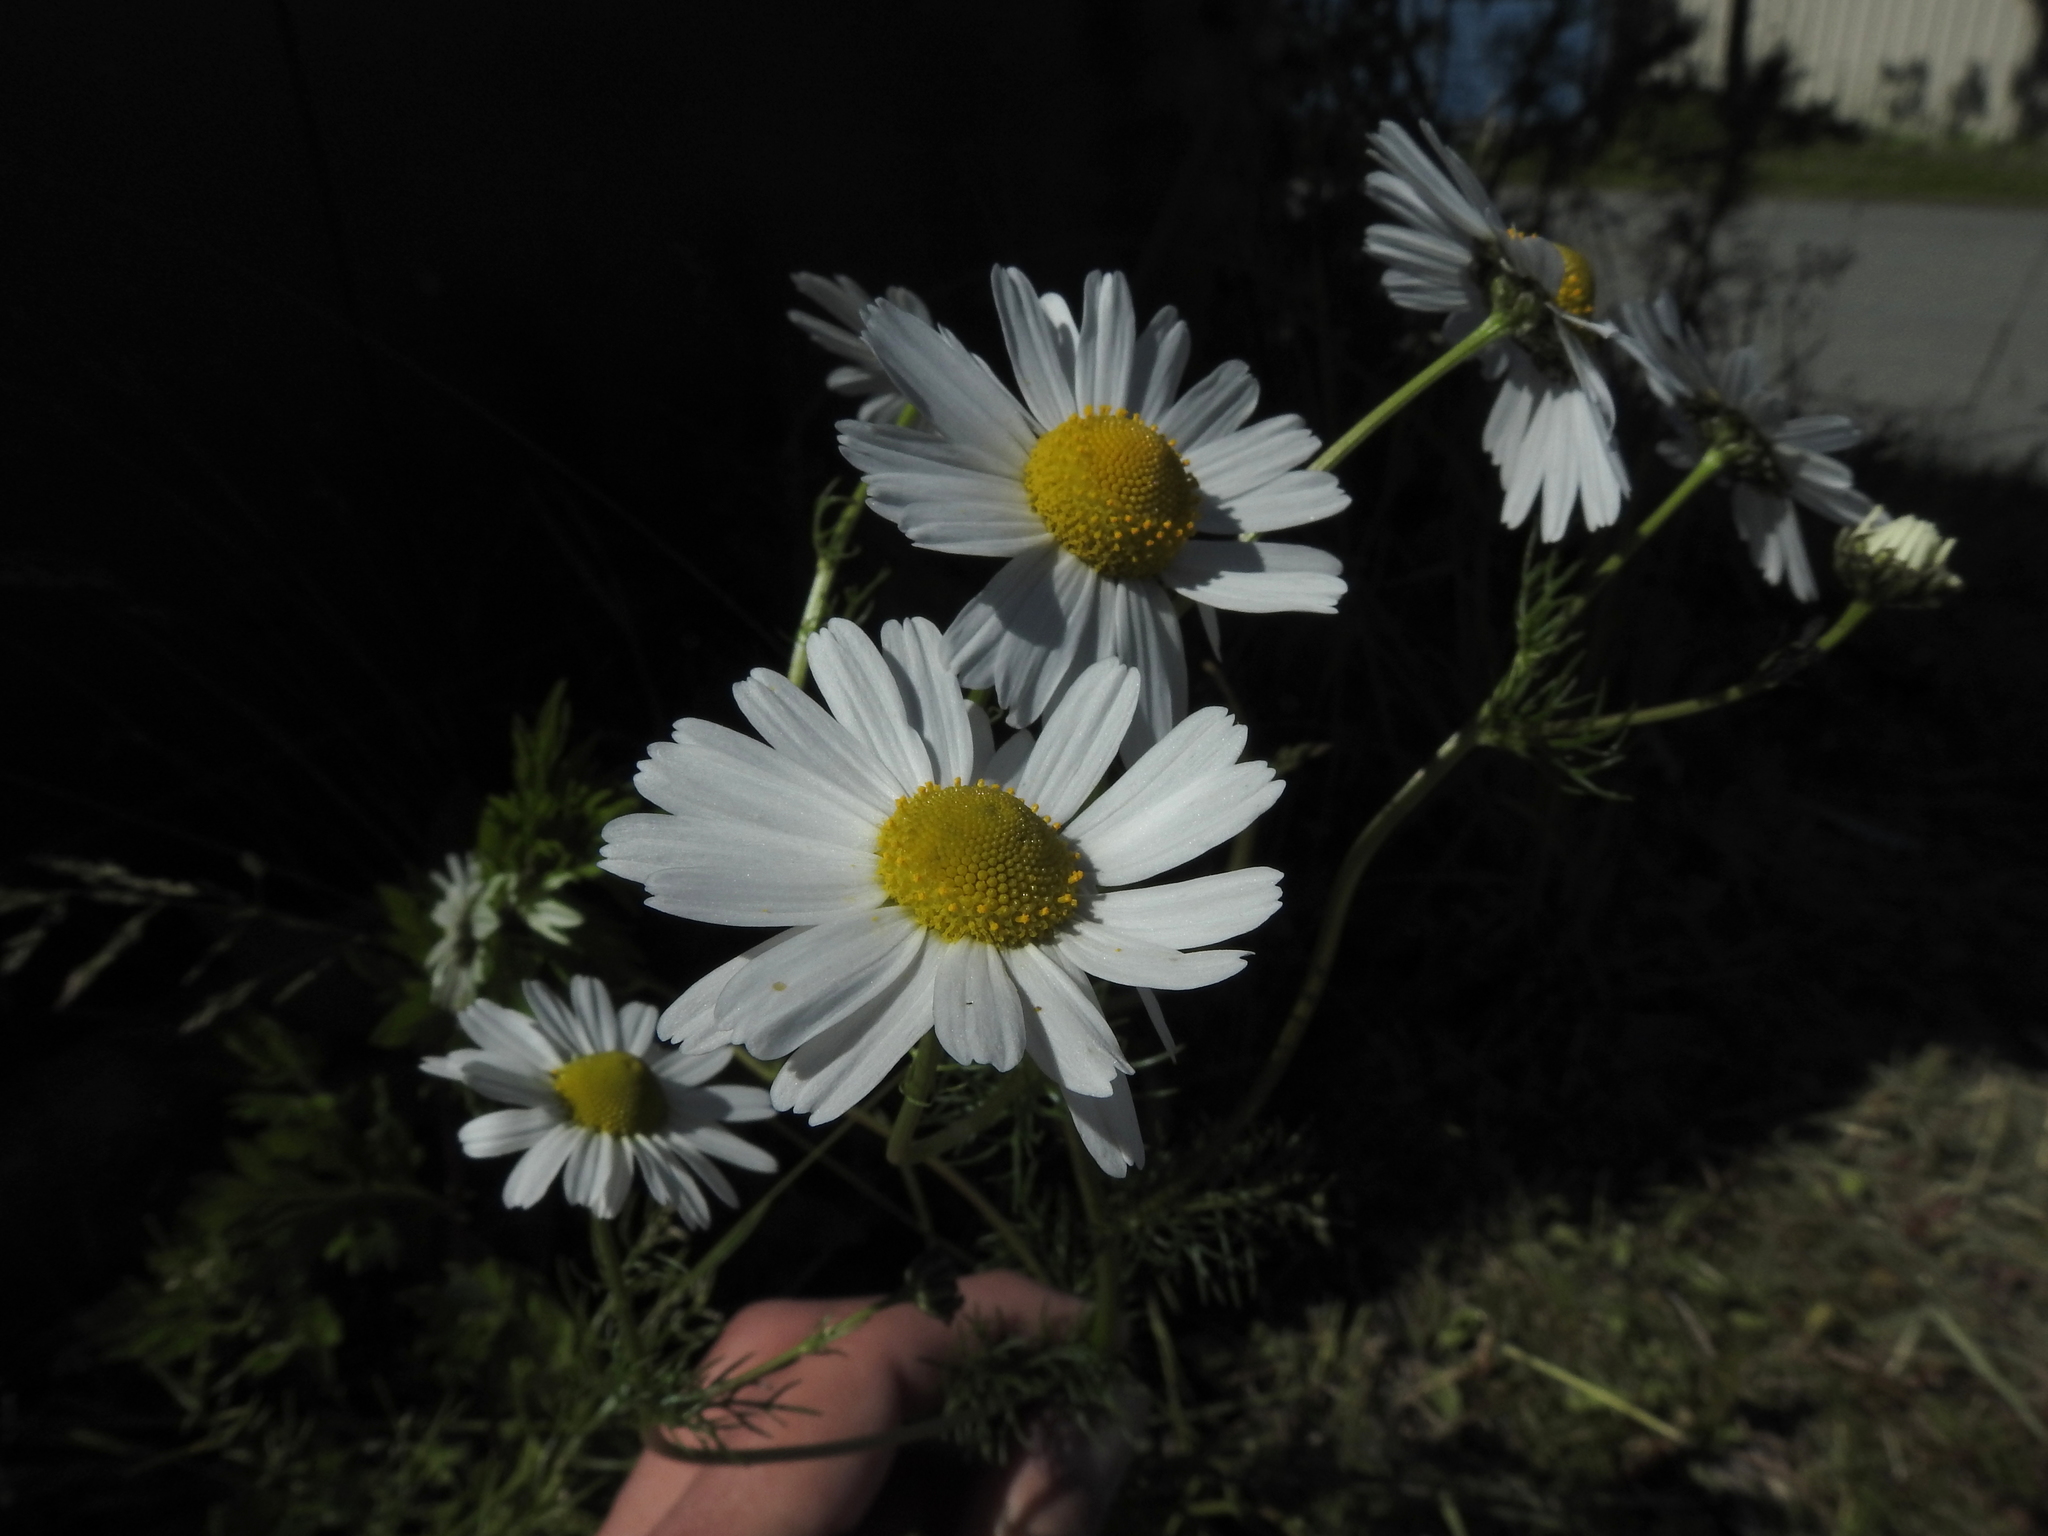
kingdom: Plantae
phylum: Tracheophyta
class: Magnoliopsida
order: Asterales
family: Asteraceae
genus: Tripleurospermum
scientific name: Tripleurospermum inodorum
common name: Scentless mayweed
